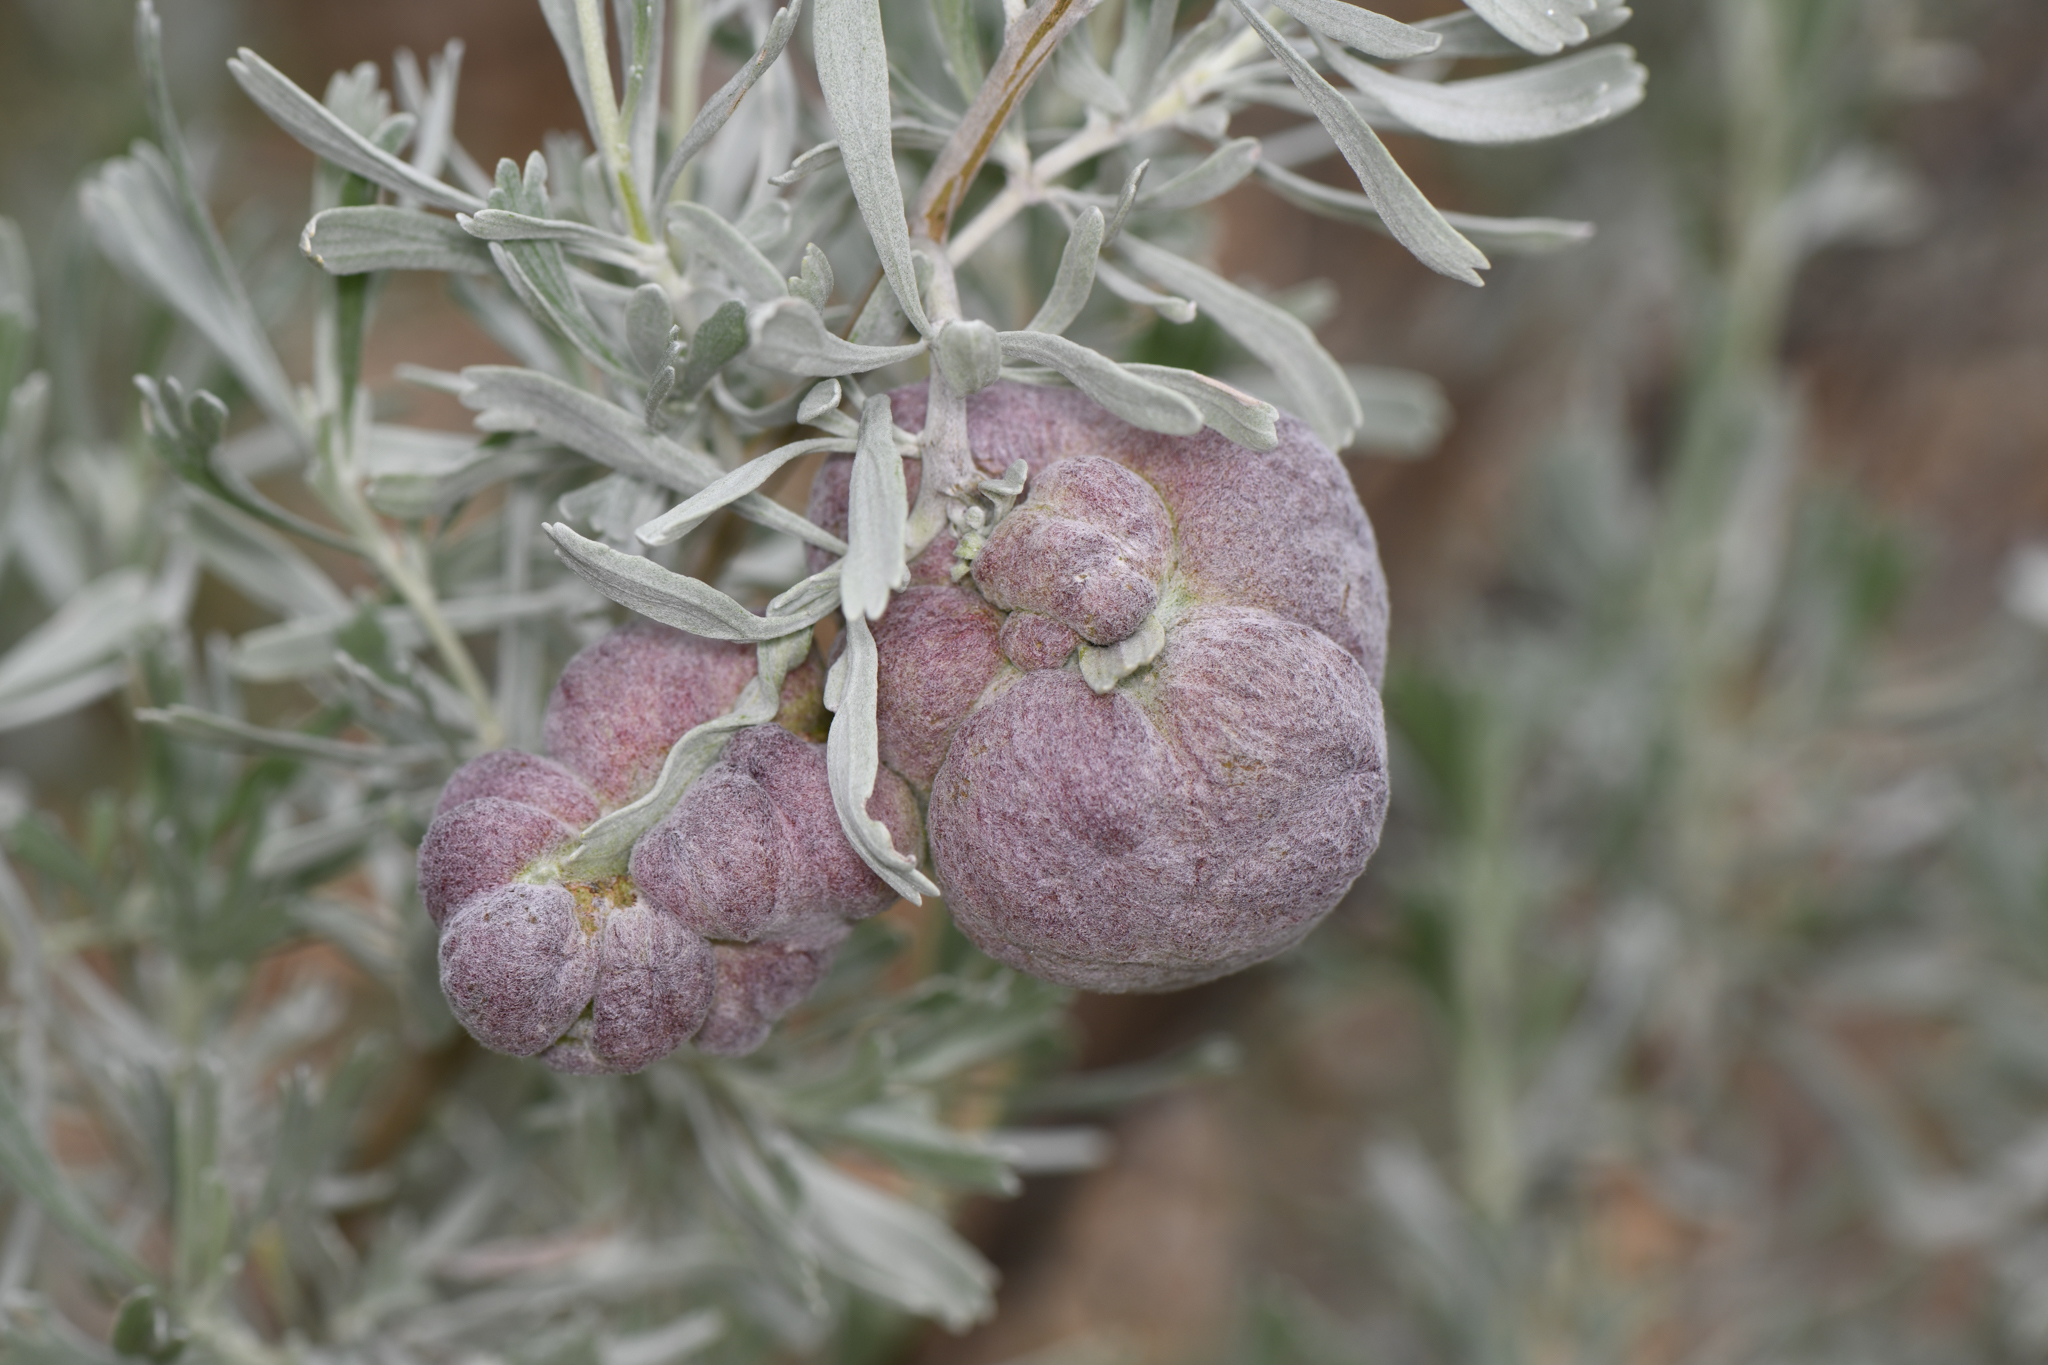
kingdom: Animalia
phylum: Arthropoda
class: Insecta
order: Diptera
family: Cecidomyiidae
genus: Rhopalomyia
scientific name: Rhopalomyia pomum
